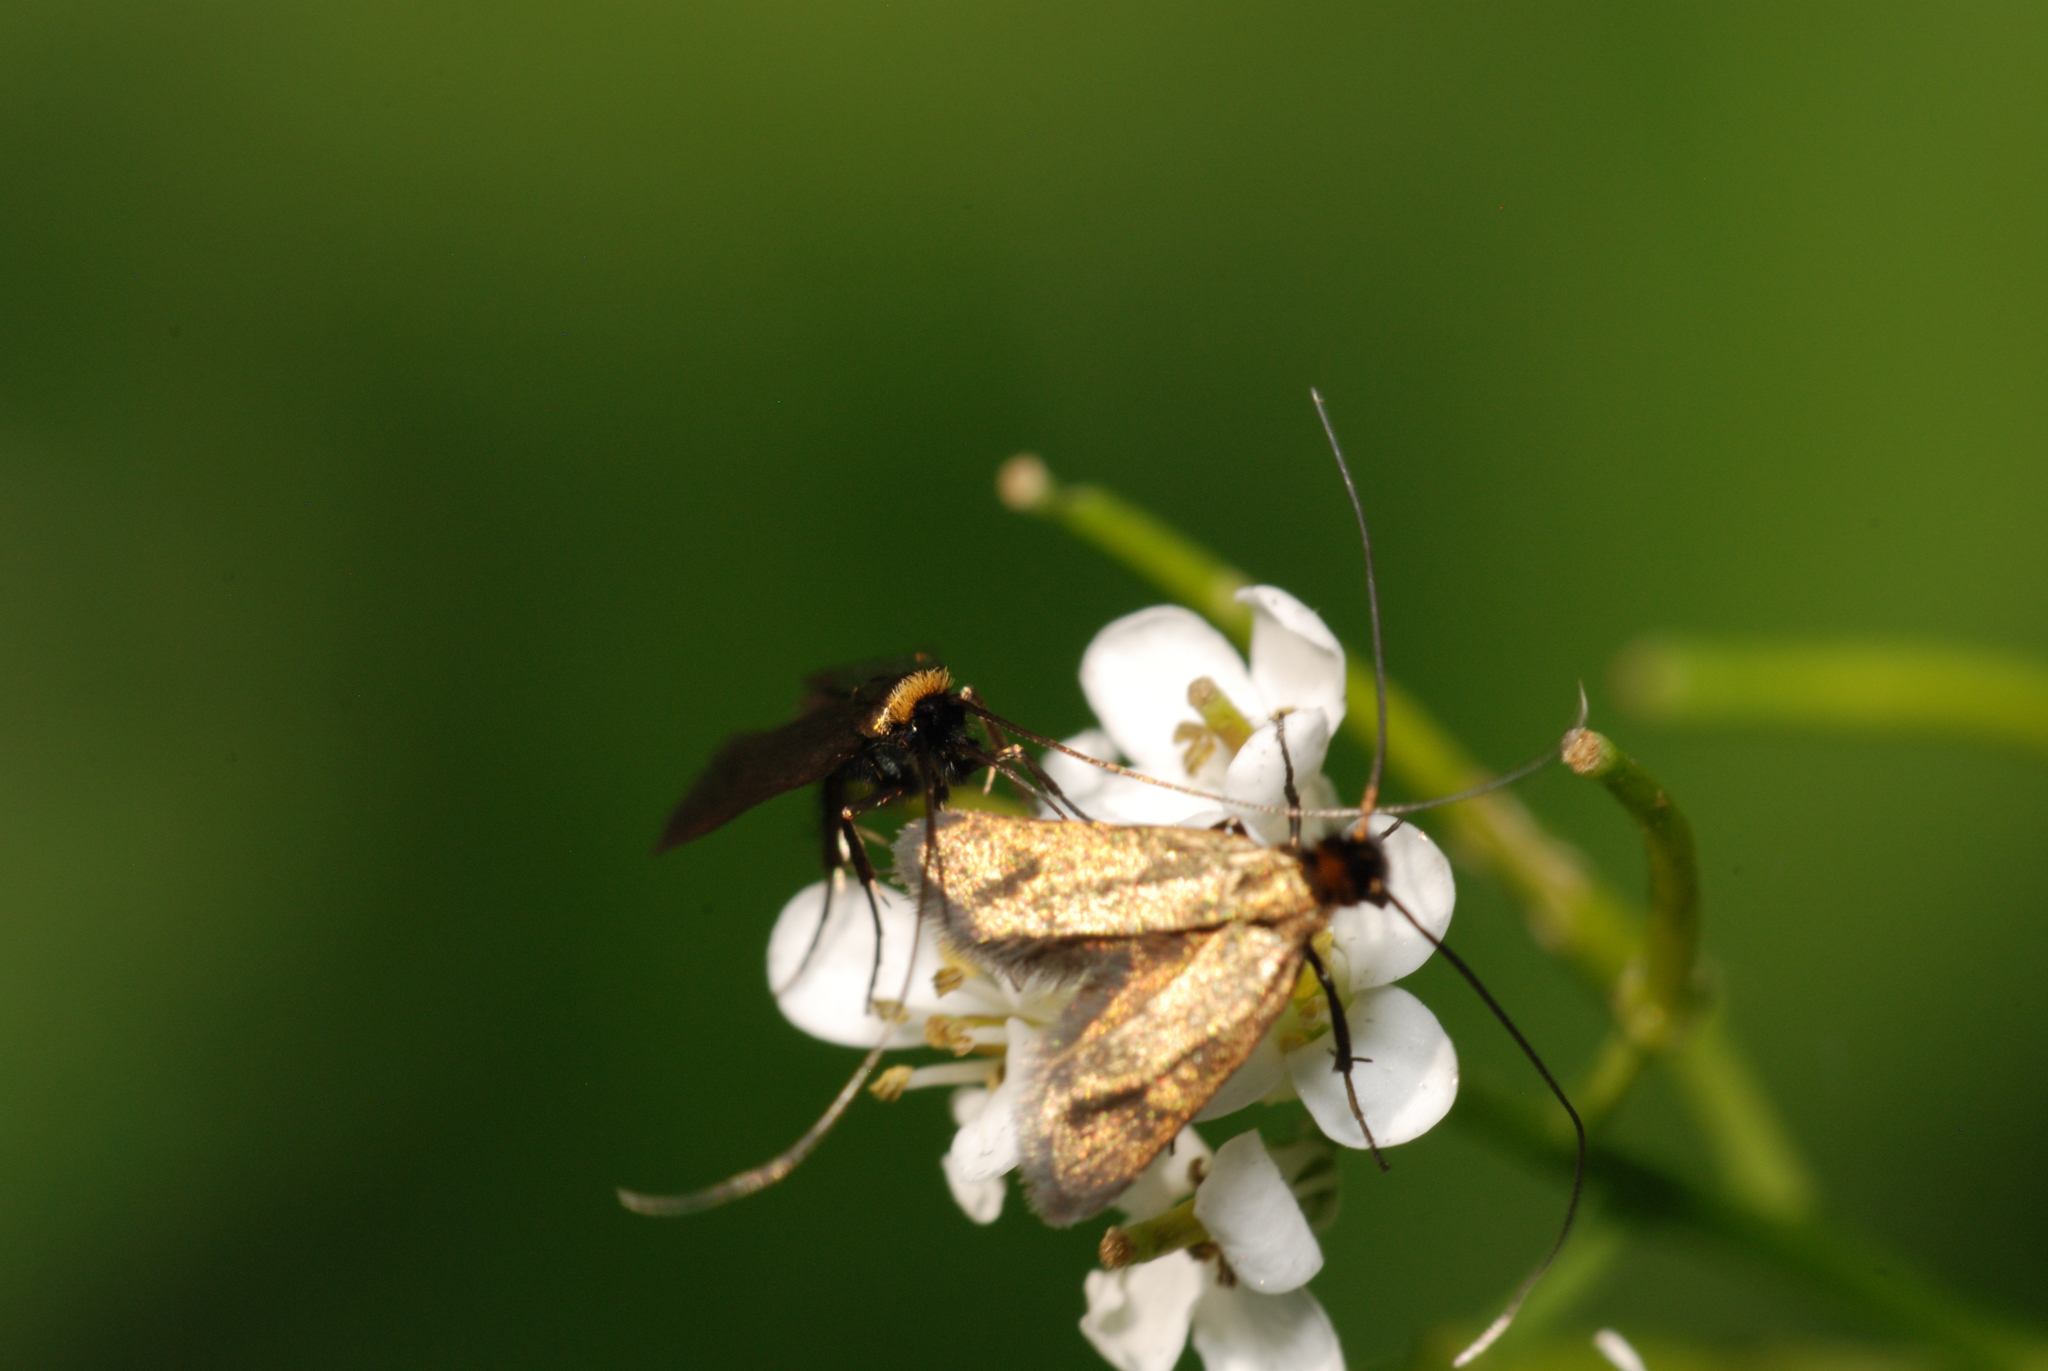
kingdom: Animalia
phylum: Arthropoda
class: Insecta
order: Lepidoptera
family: Adelidae
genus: Cauchas
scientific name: Cauchas rufimitrella
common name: Meadow long-horn
